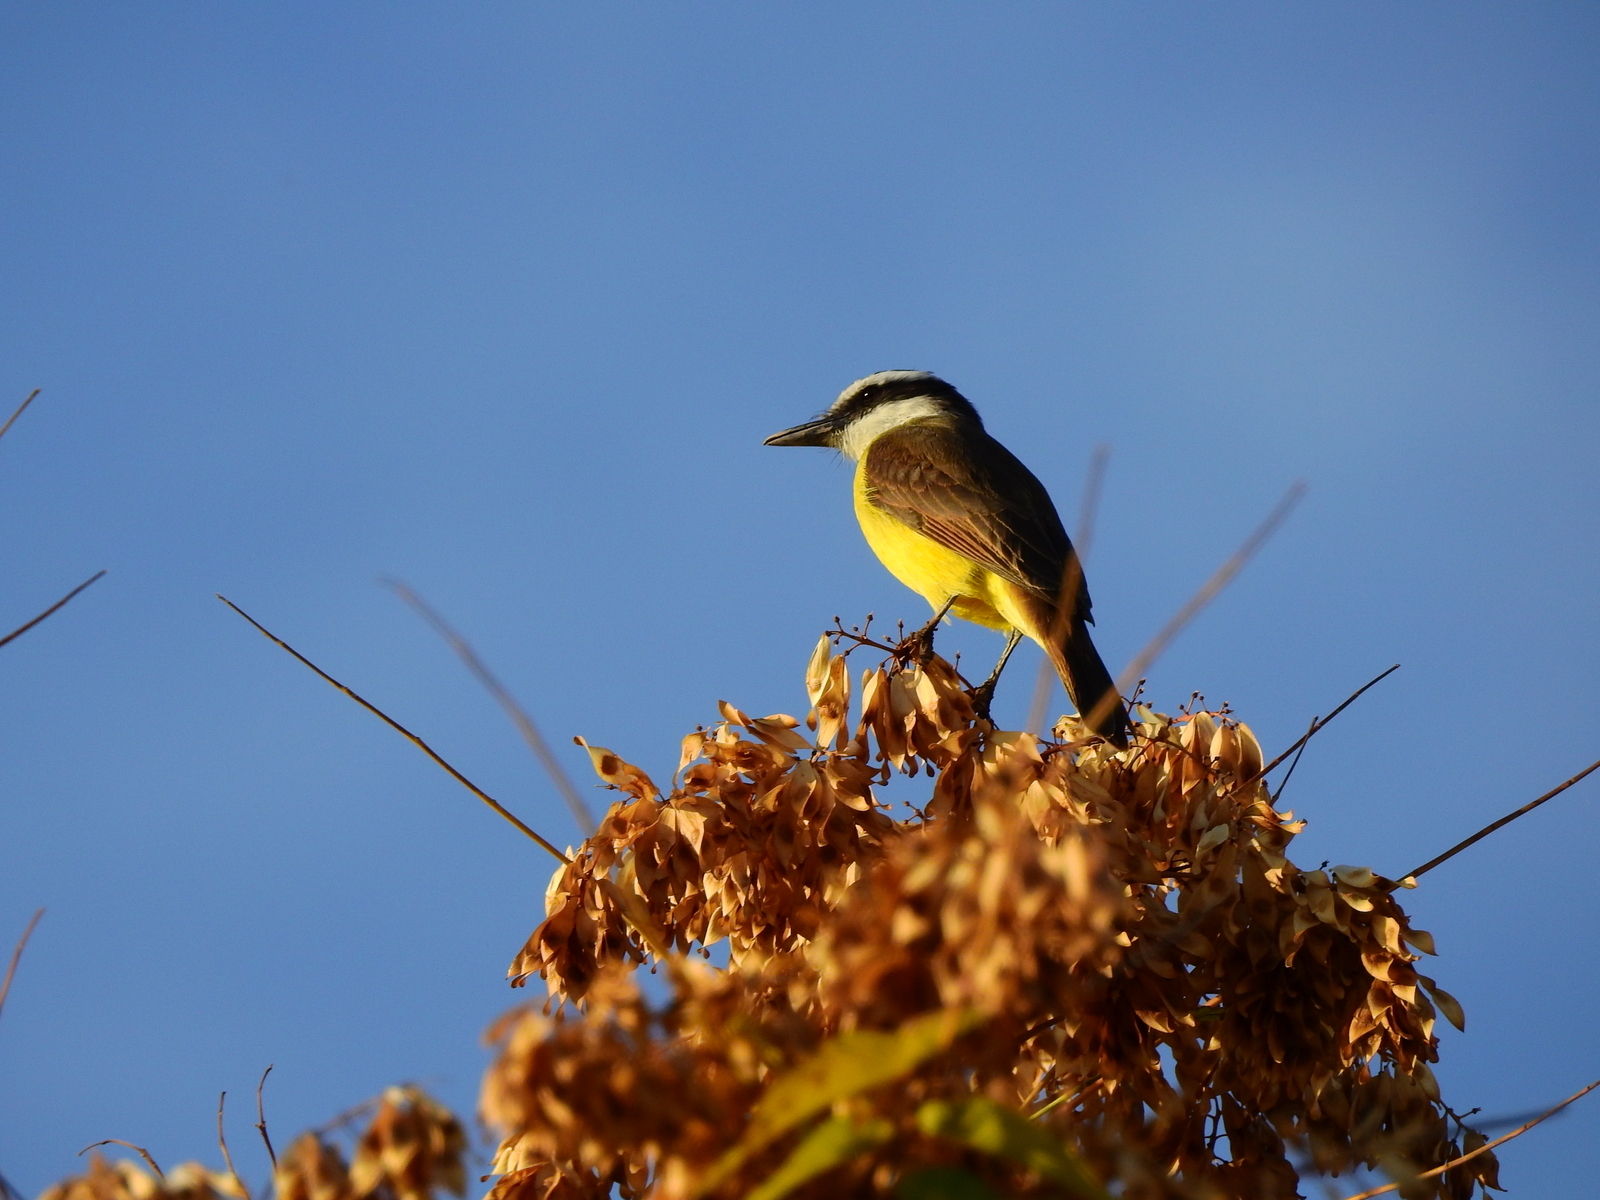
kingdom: Animalia
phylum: Chordata
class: Aves
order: Passeriformes
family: Tyrannidae
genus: Pitangus
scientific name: Pitangus sulphuratus
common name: Great kiskadee
